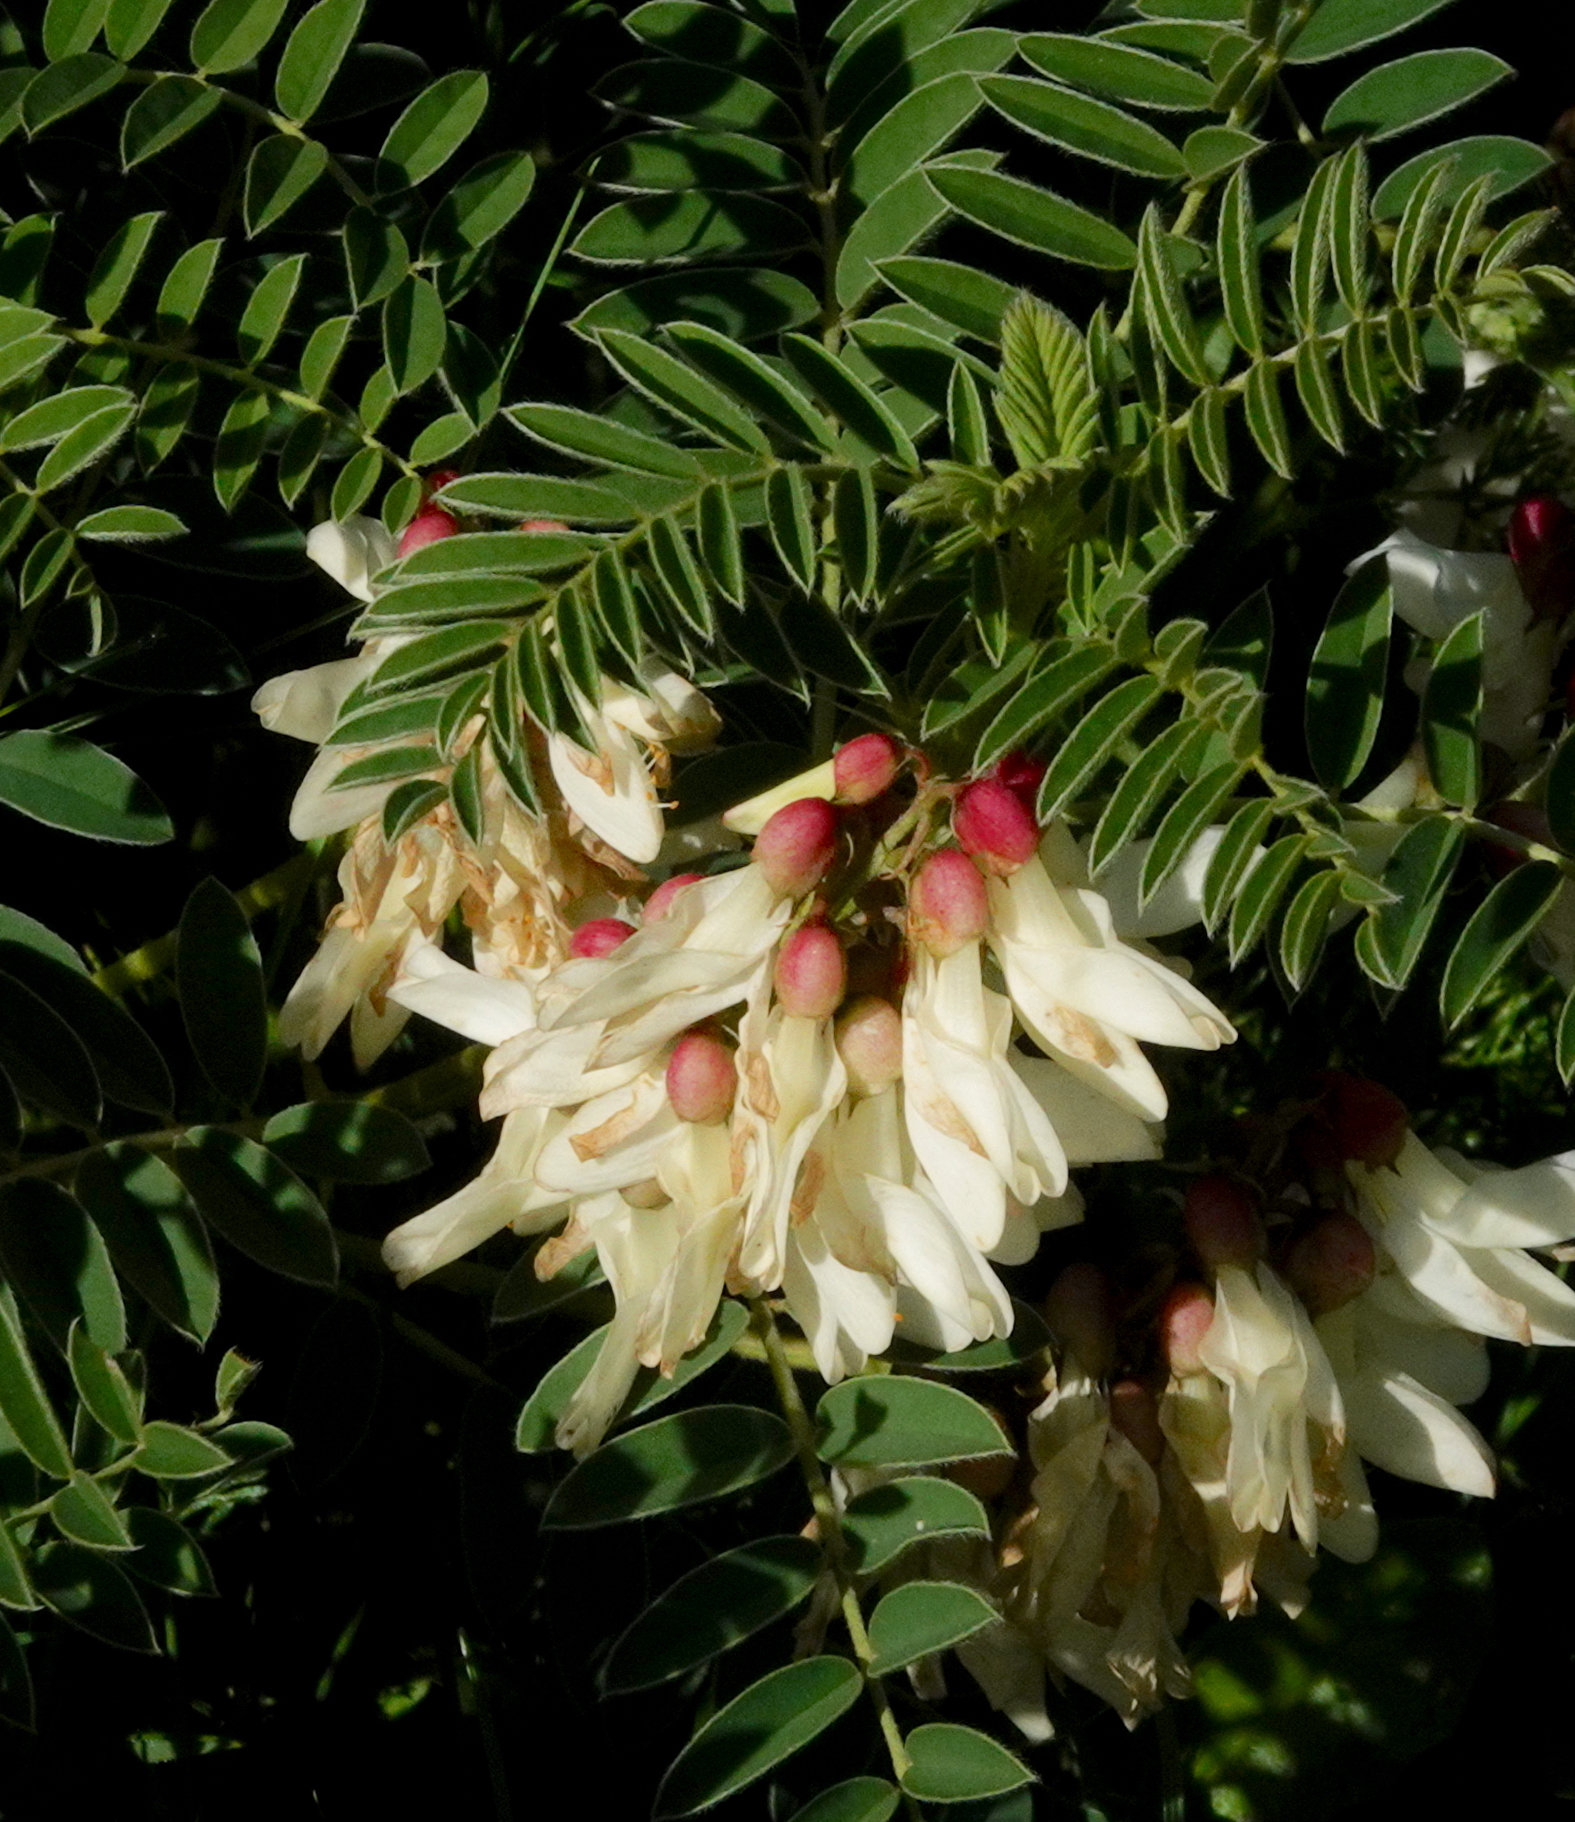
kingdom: Plantae
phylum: Tracheophyta
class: Magnoliopsida
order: Fabales
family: Fabaceae
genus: Erophaca
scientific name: Erophaca baetica
